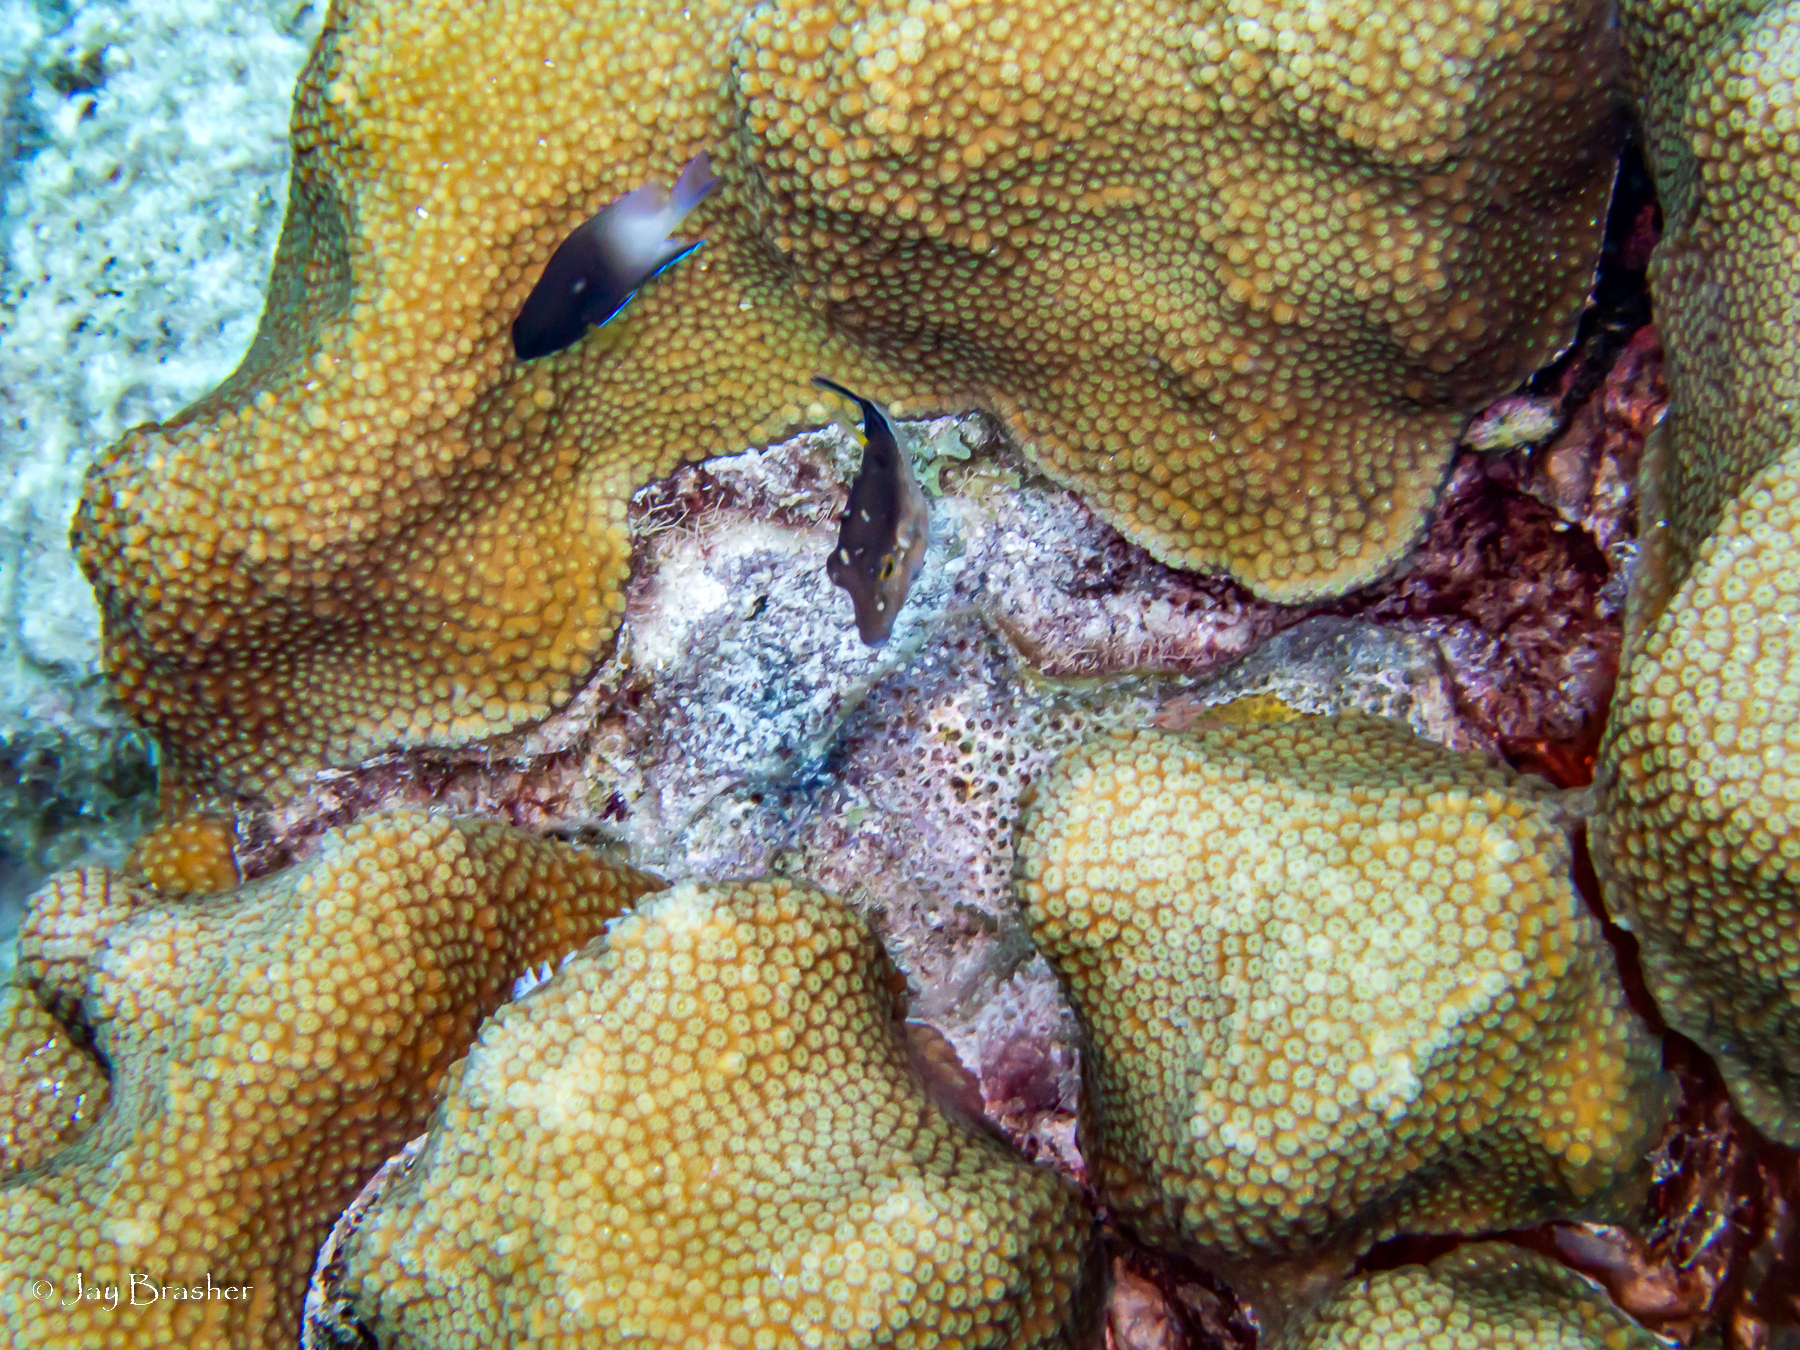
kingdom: Animalia
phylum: Chordata
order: Tetraodontiformes
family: Tetraodontidae
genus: Canthigaster
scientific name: Canthigaster rostrata
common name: Caribbean sharpnose-puffer
